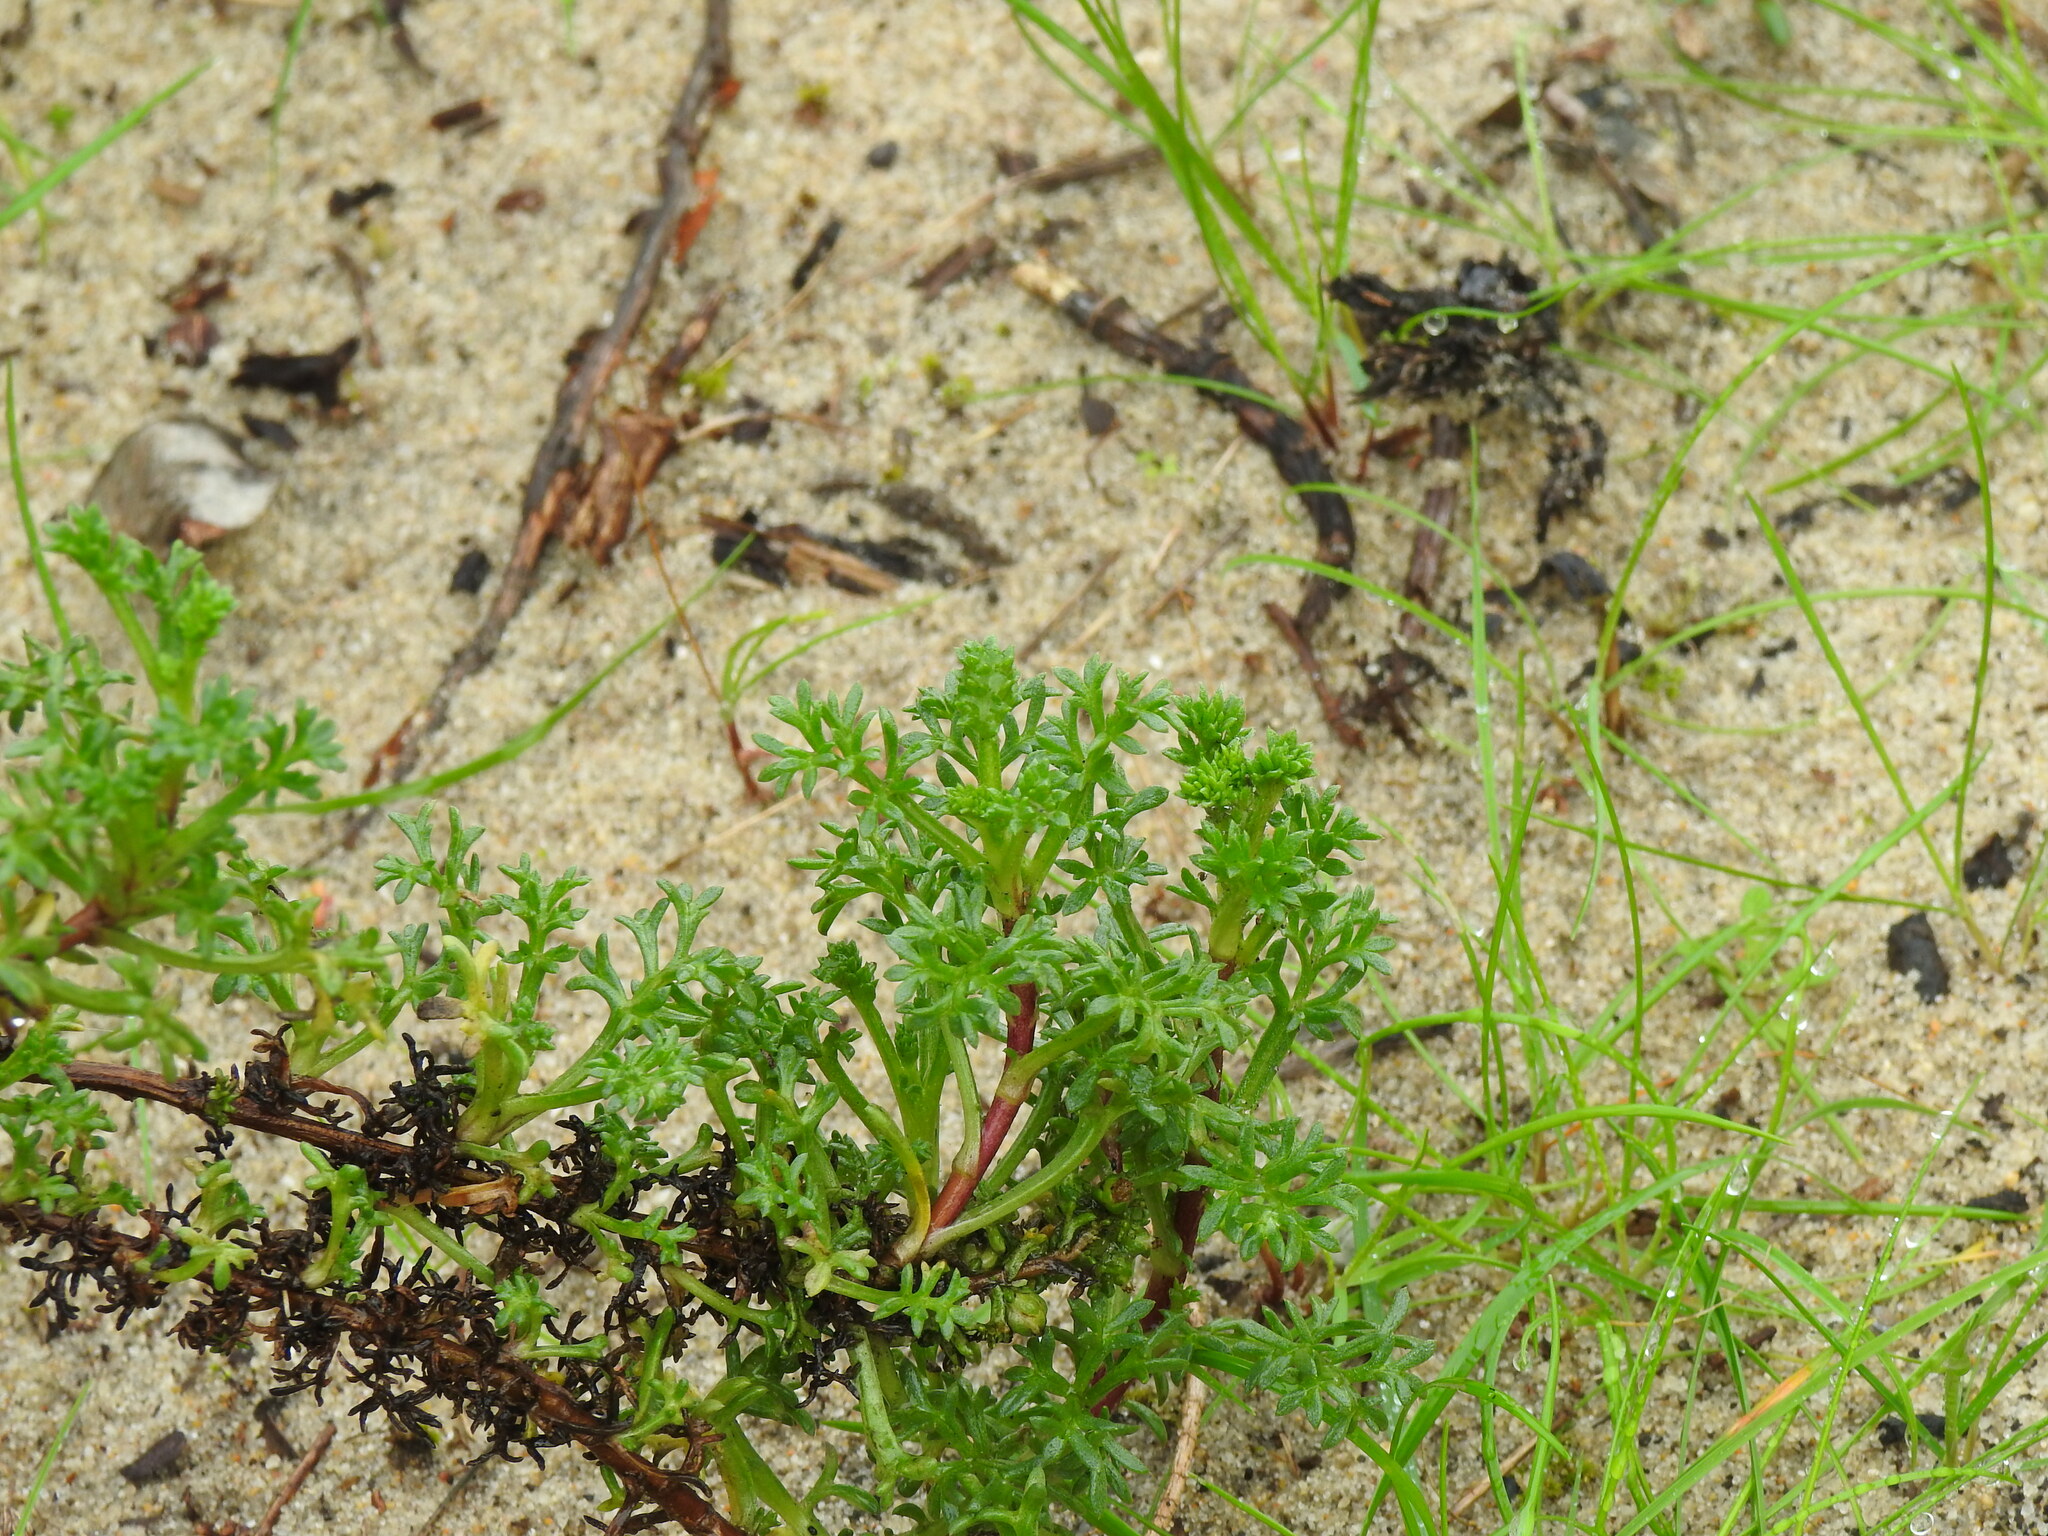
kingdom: Plantae
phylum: Tracheophyta
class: Magnoliopsida
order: Asterales
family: Asteraceae
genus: Artemisia
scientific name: Artemisia crithmifolia
